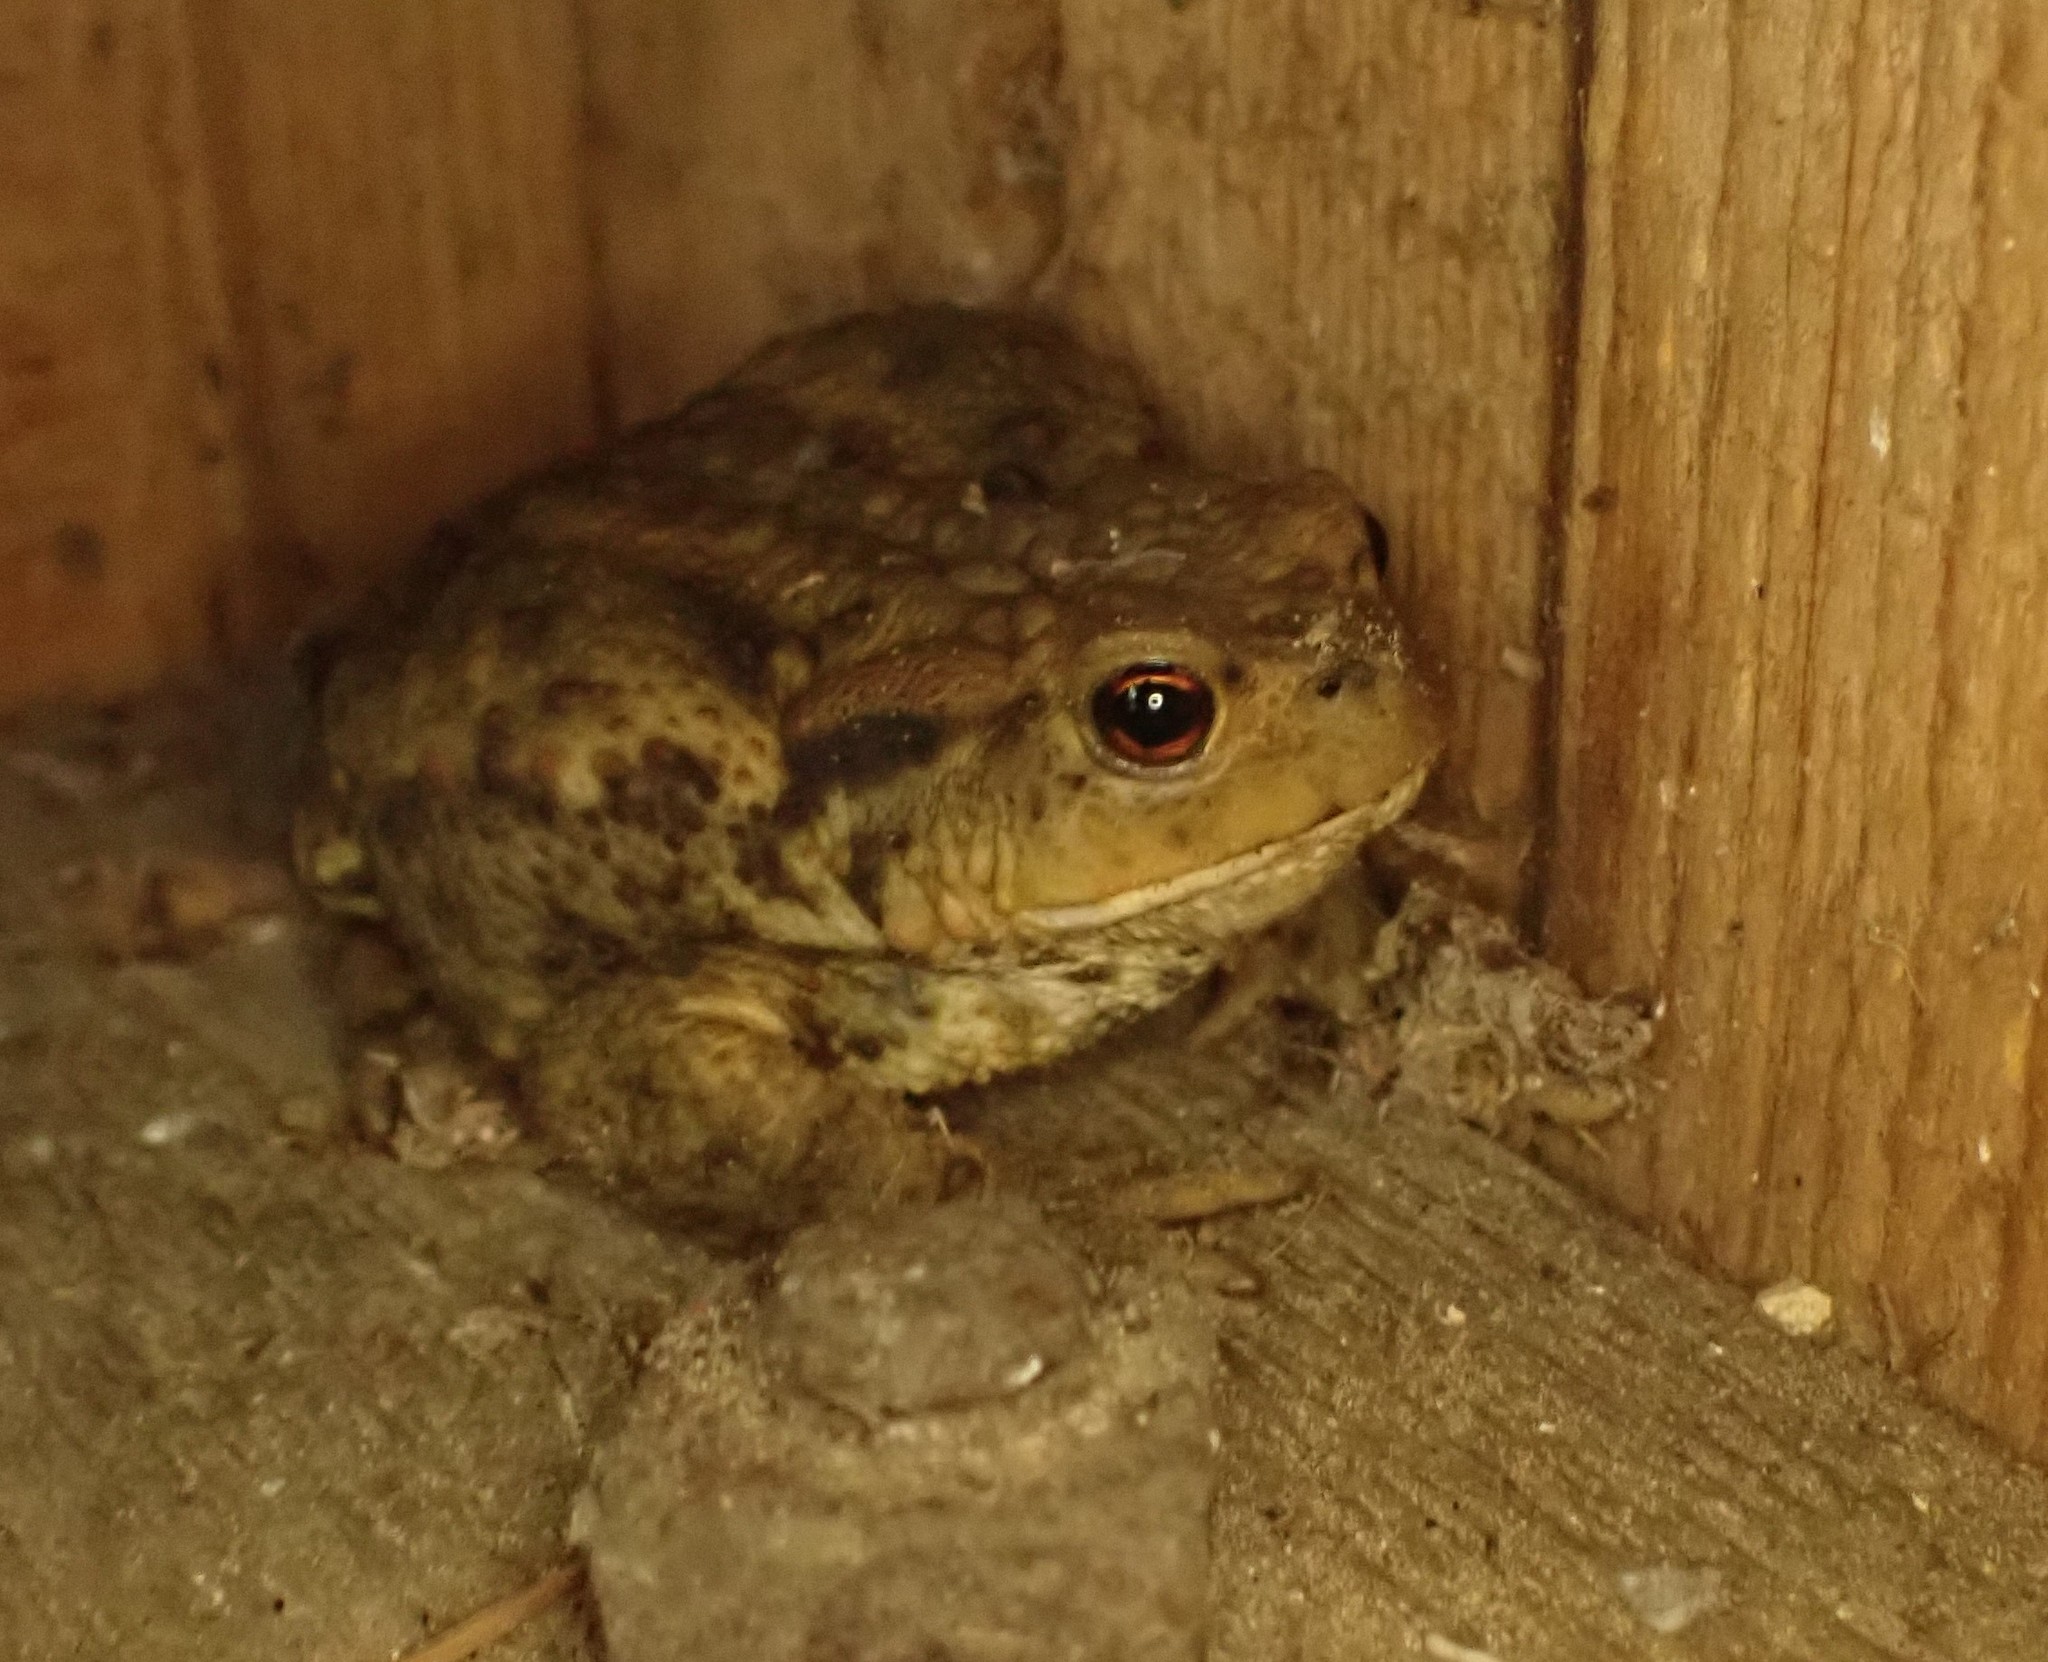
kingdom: Animalia
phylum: Chordata
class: Amphibia
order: Anura
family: Bufonidae
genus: Bufo
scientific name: Bufo bufo
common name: Common toad
